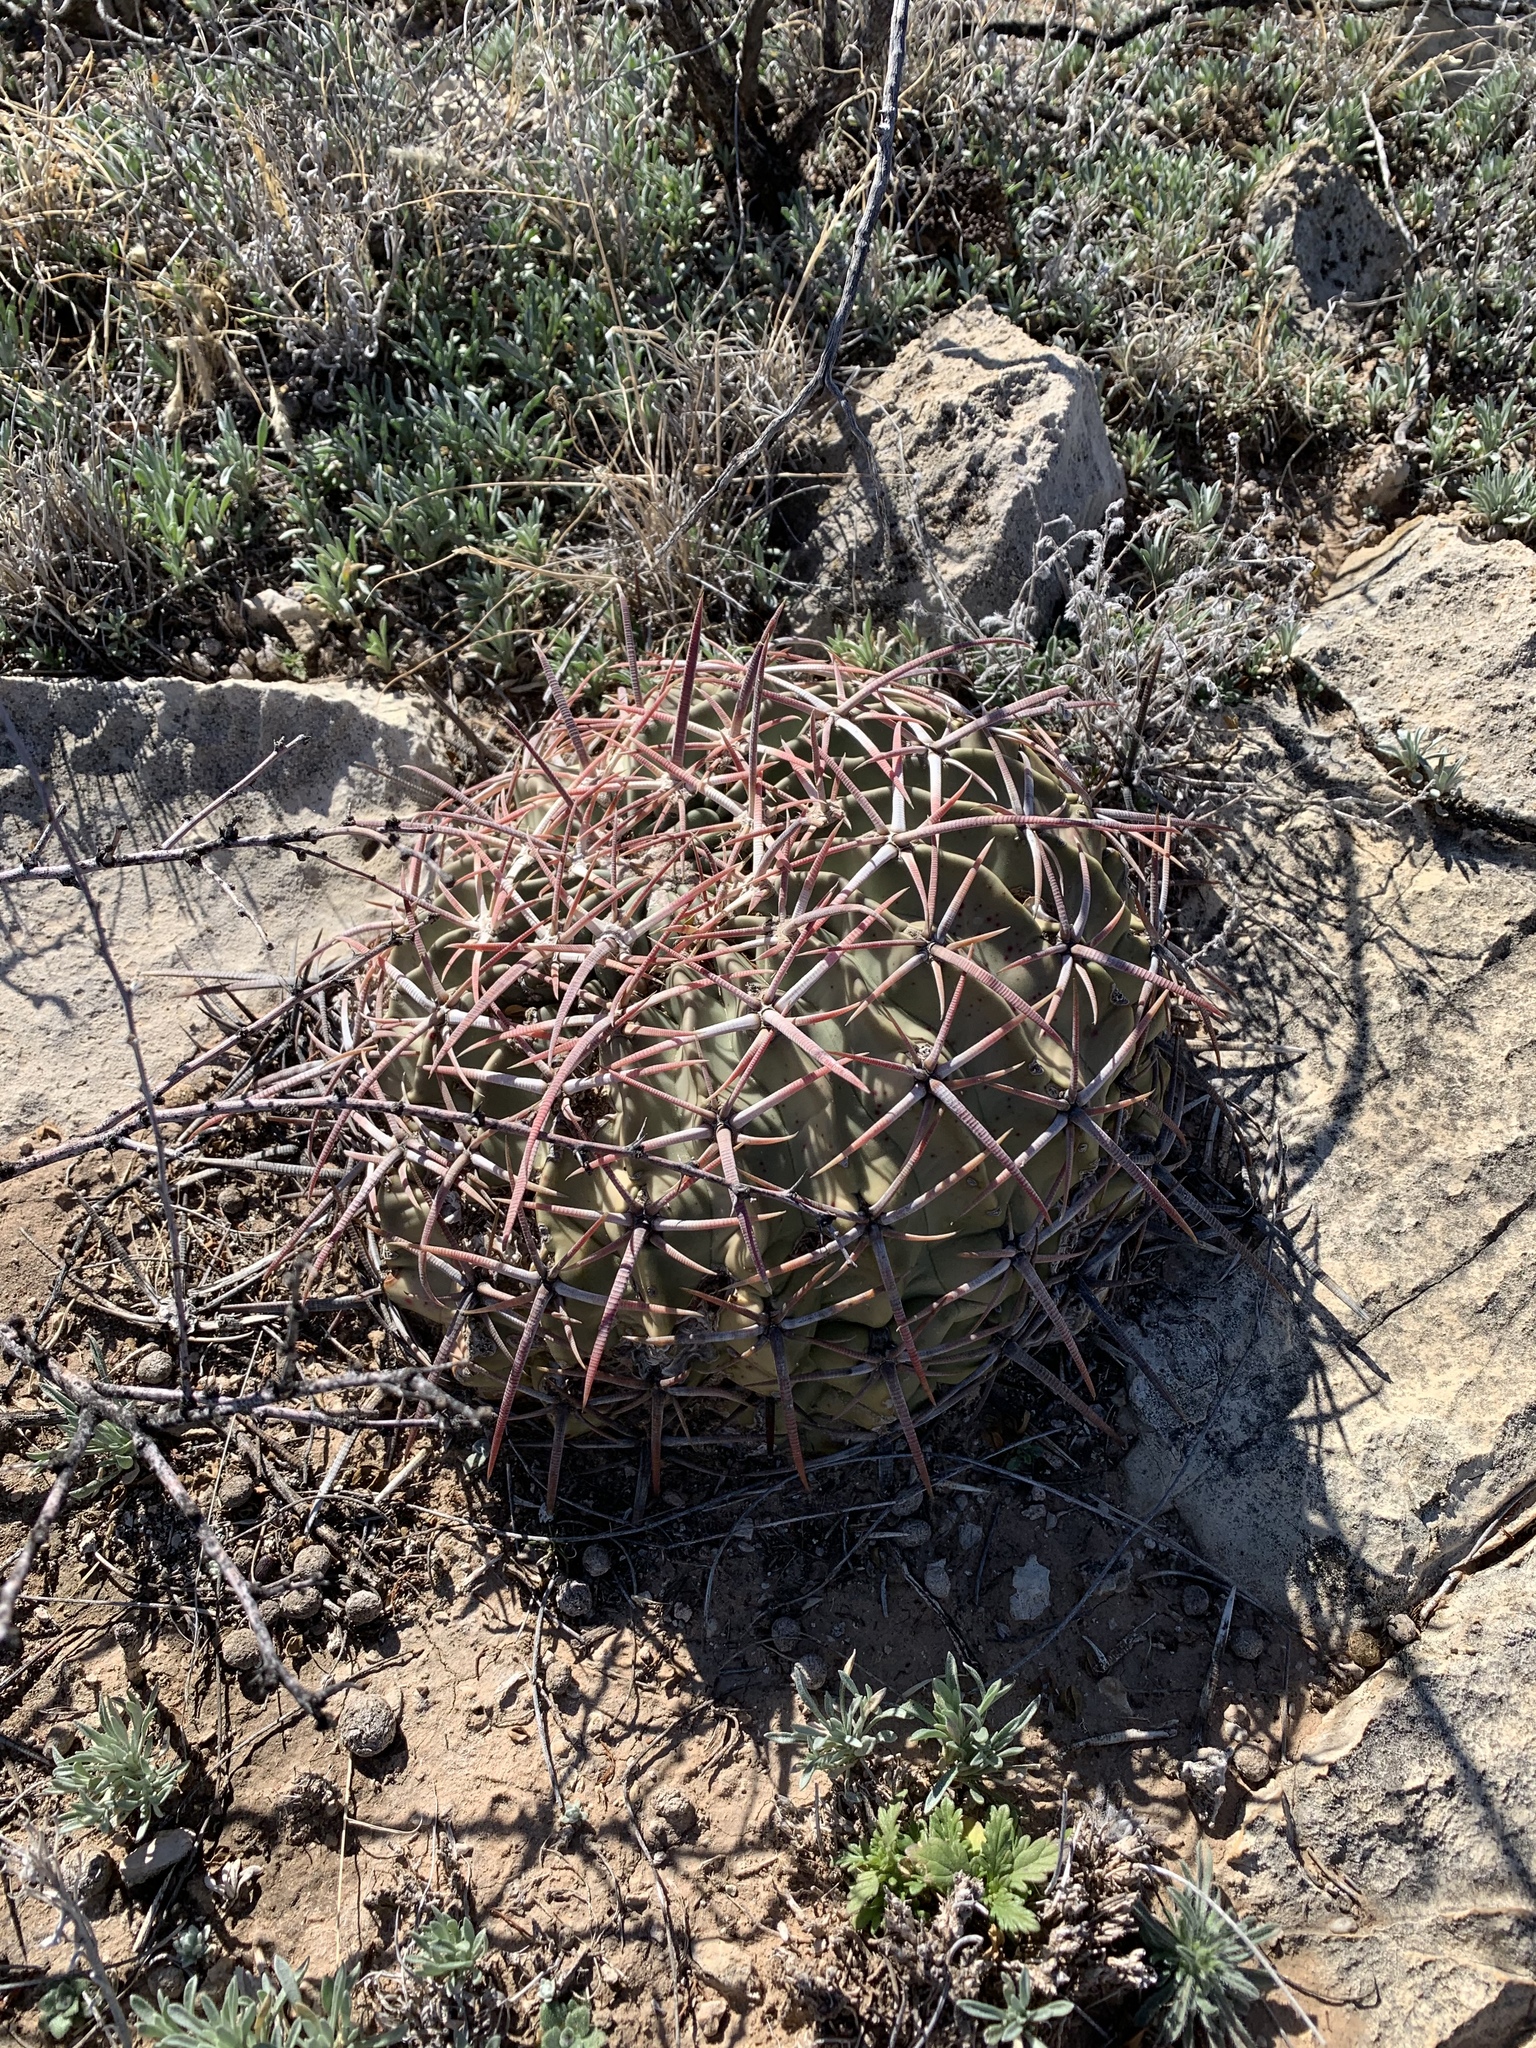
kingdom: Plantae
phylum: Tracheophyta
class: Magnoliopsida
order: Caryophyllales
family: Cactaceae
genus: Echinocactus
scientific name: Echinocactus texensis
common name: Devil's pincushion
